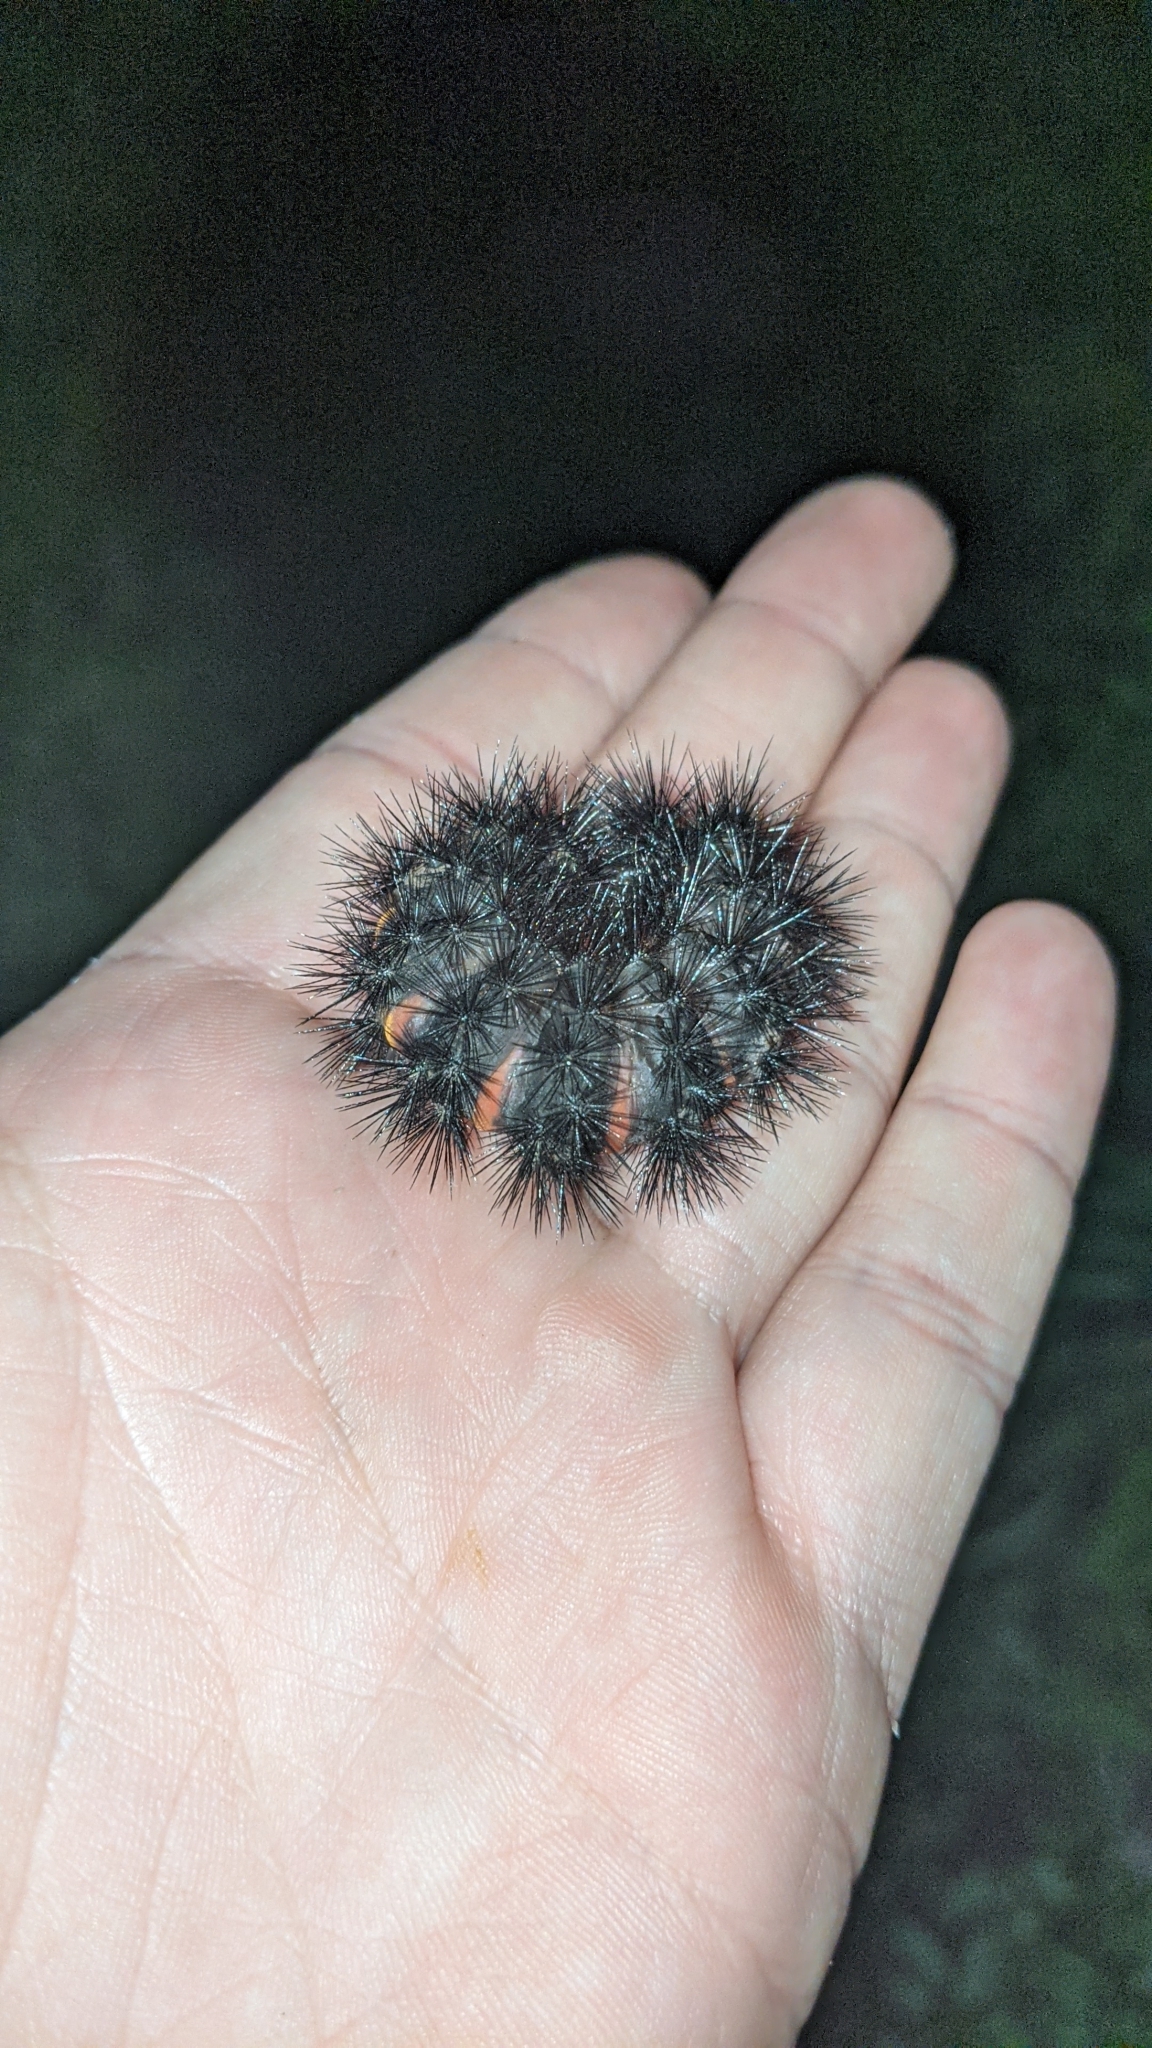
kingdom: Animalia
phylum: Arthropoda
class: Insecta
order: Lepidoptera
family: Erebidae
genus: Hypercompe
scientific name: Hypercompe scribonia
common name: Giant leopard moth
